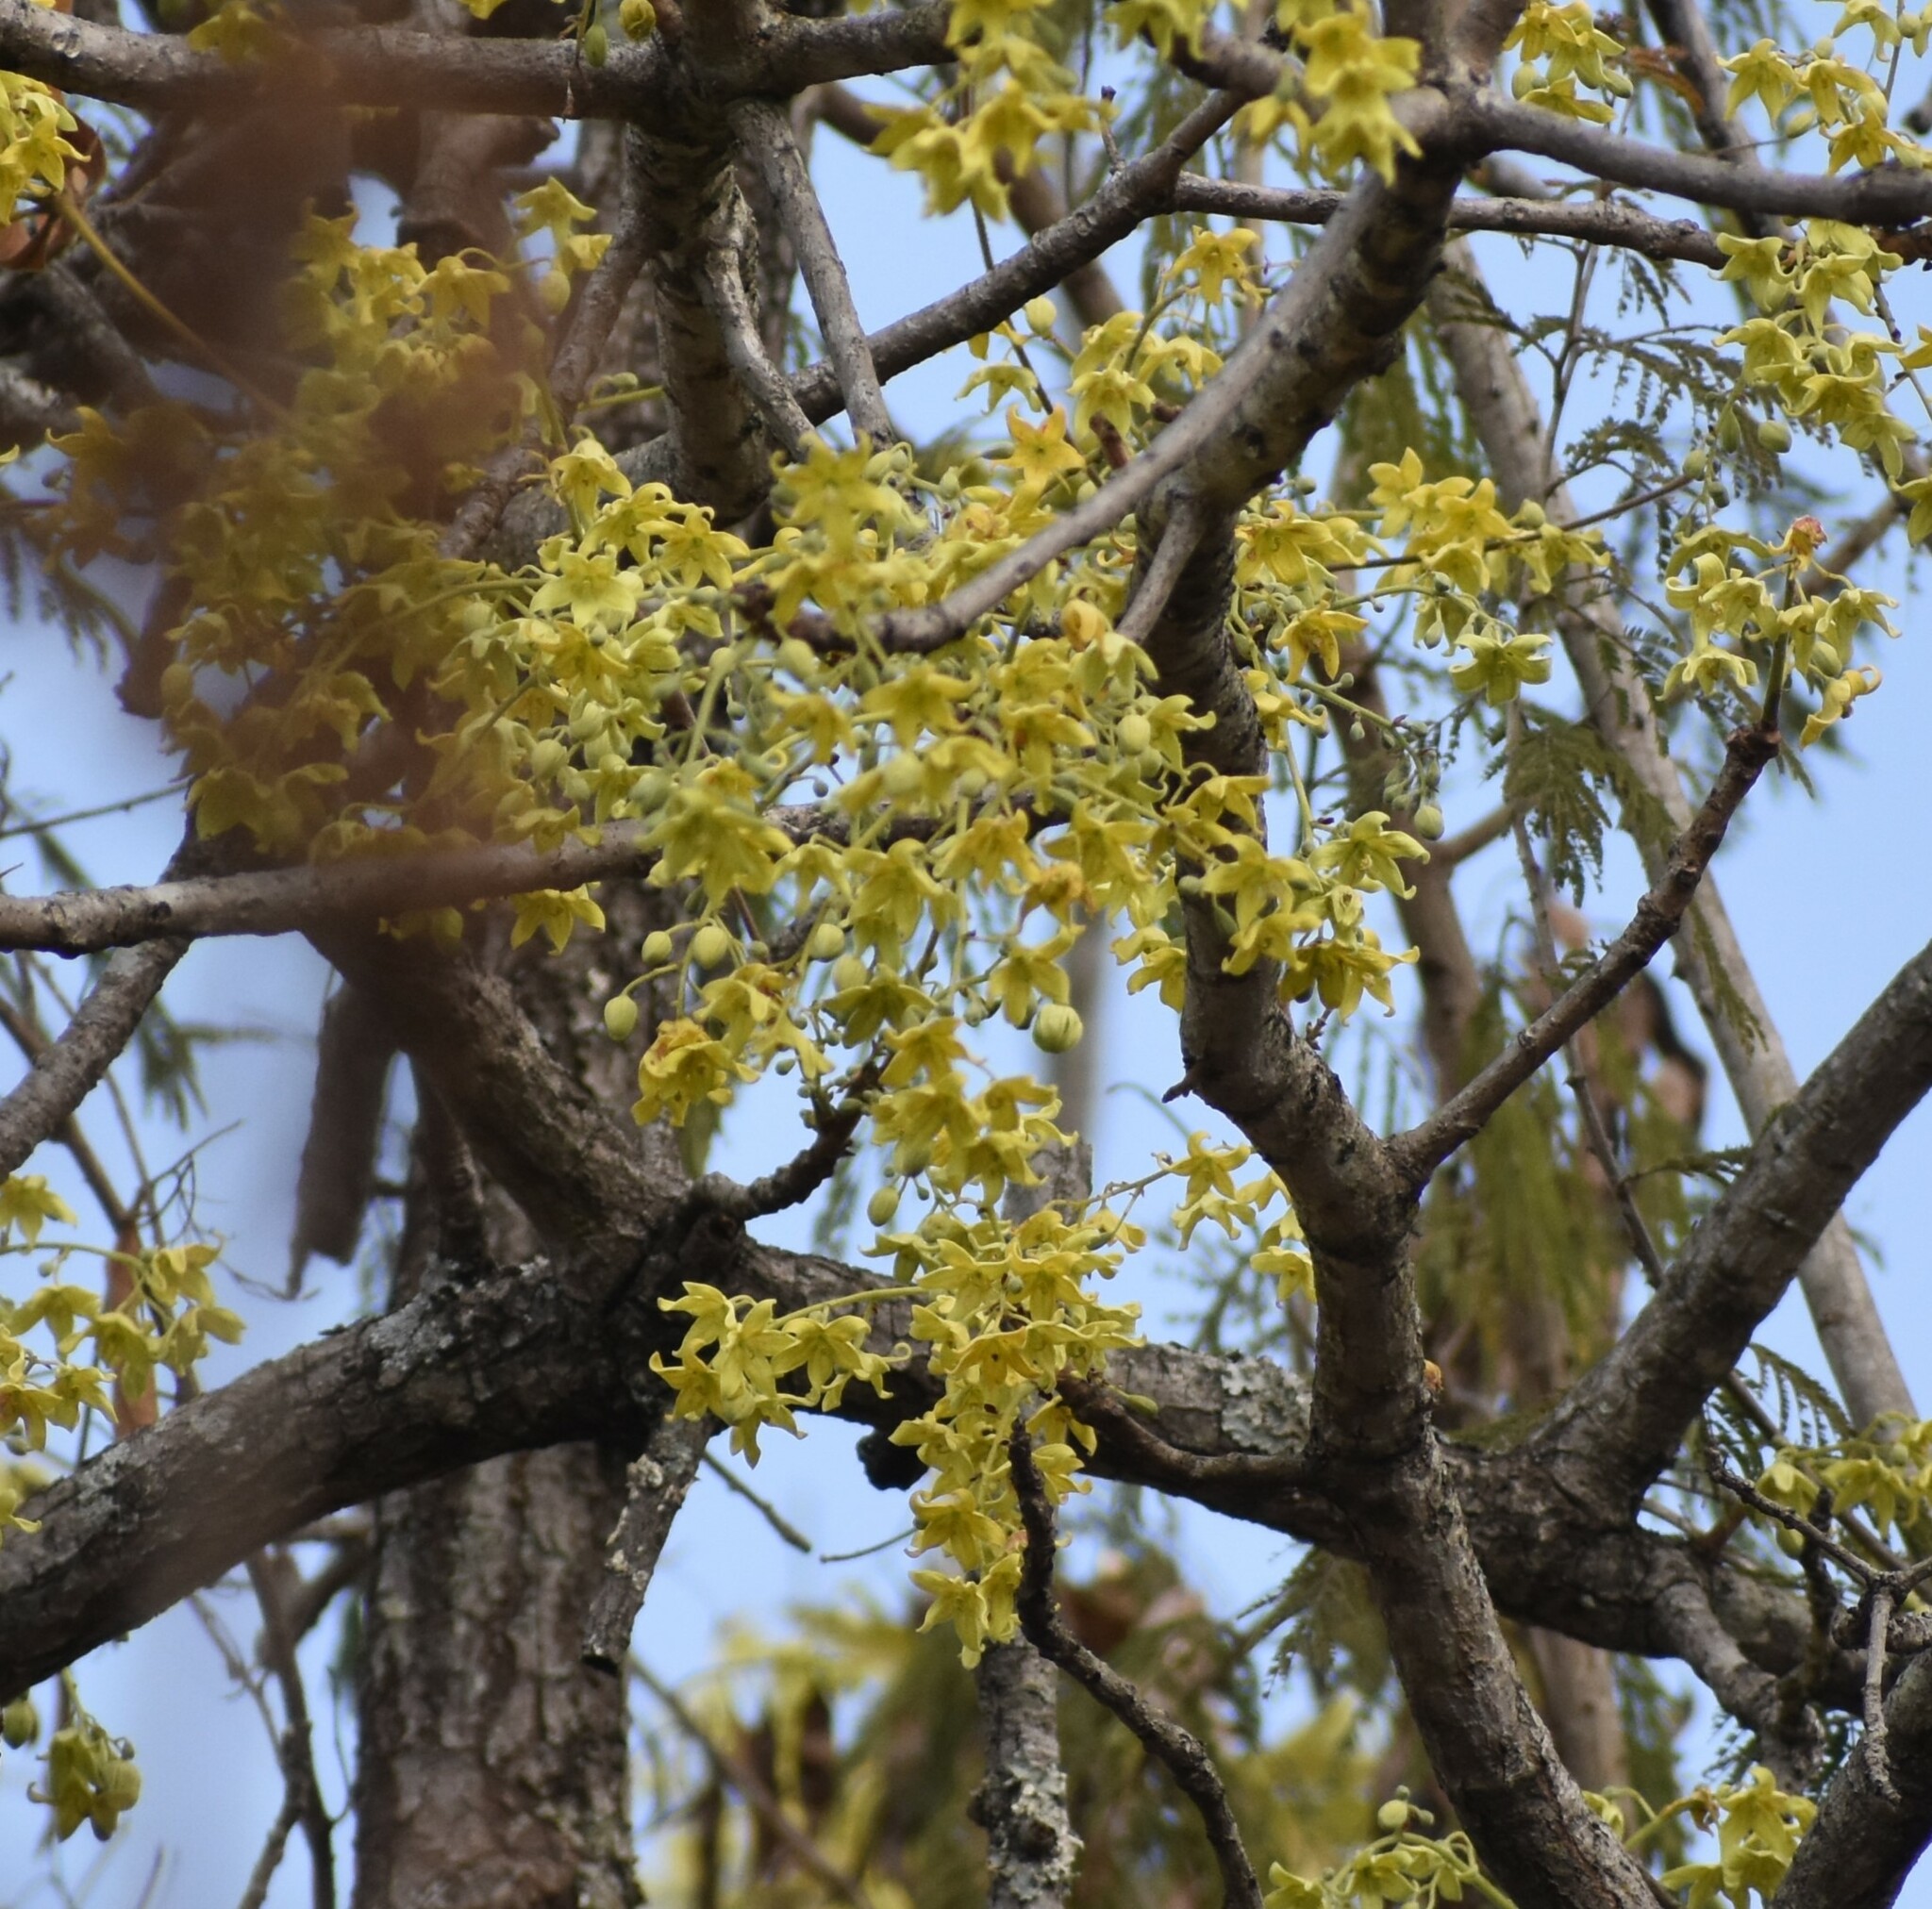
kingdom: Plantae
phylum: Tracheophyta
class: Magnoliopsida
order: Malvales
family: Malvaceae
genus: Sterculia
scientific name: Sterculia murex
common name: Lowveld star-chestnut
